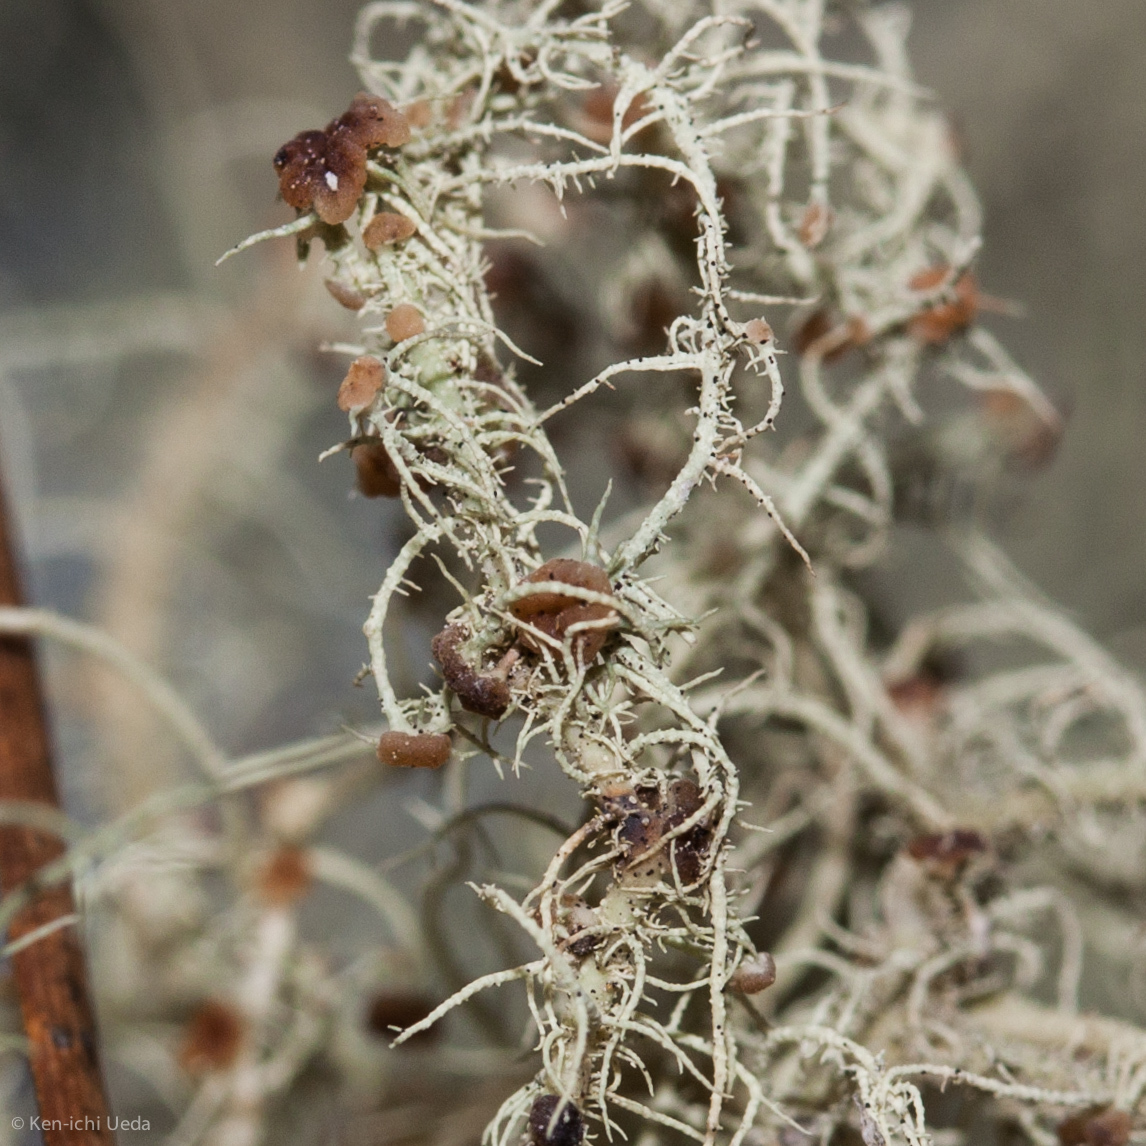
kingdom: Fungi
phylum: Ascomycota
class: Lecanoromycetes
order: Lecanorales
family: Parmeliaceae
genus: Usnea
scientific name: Usnea intermedia
